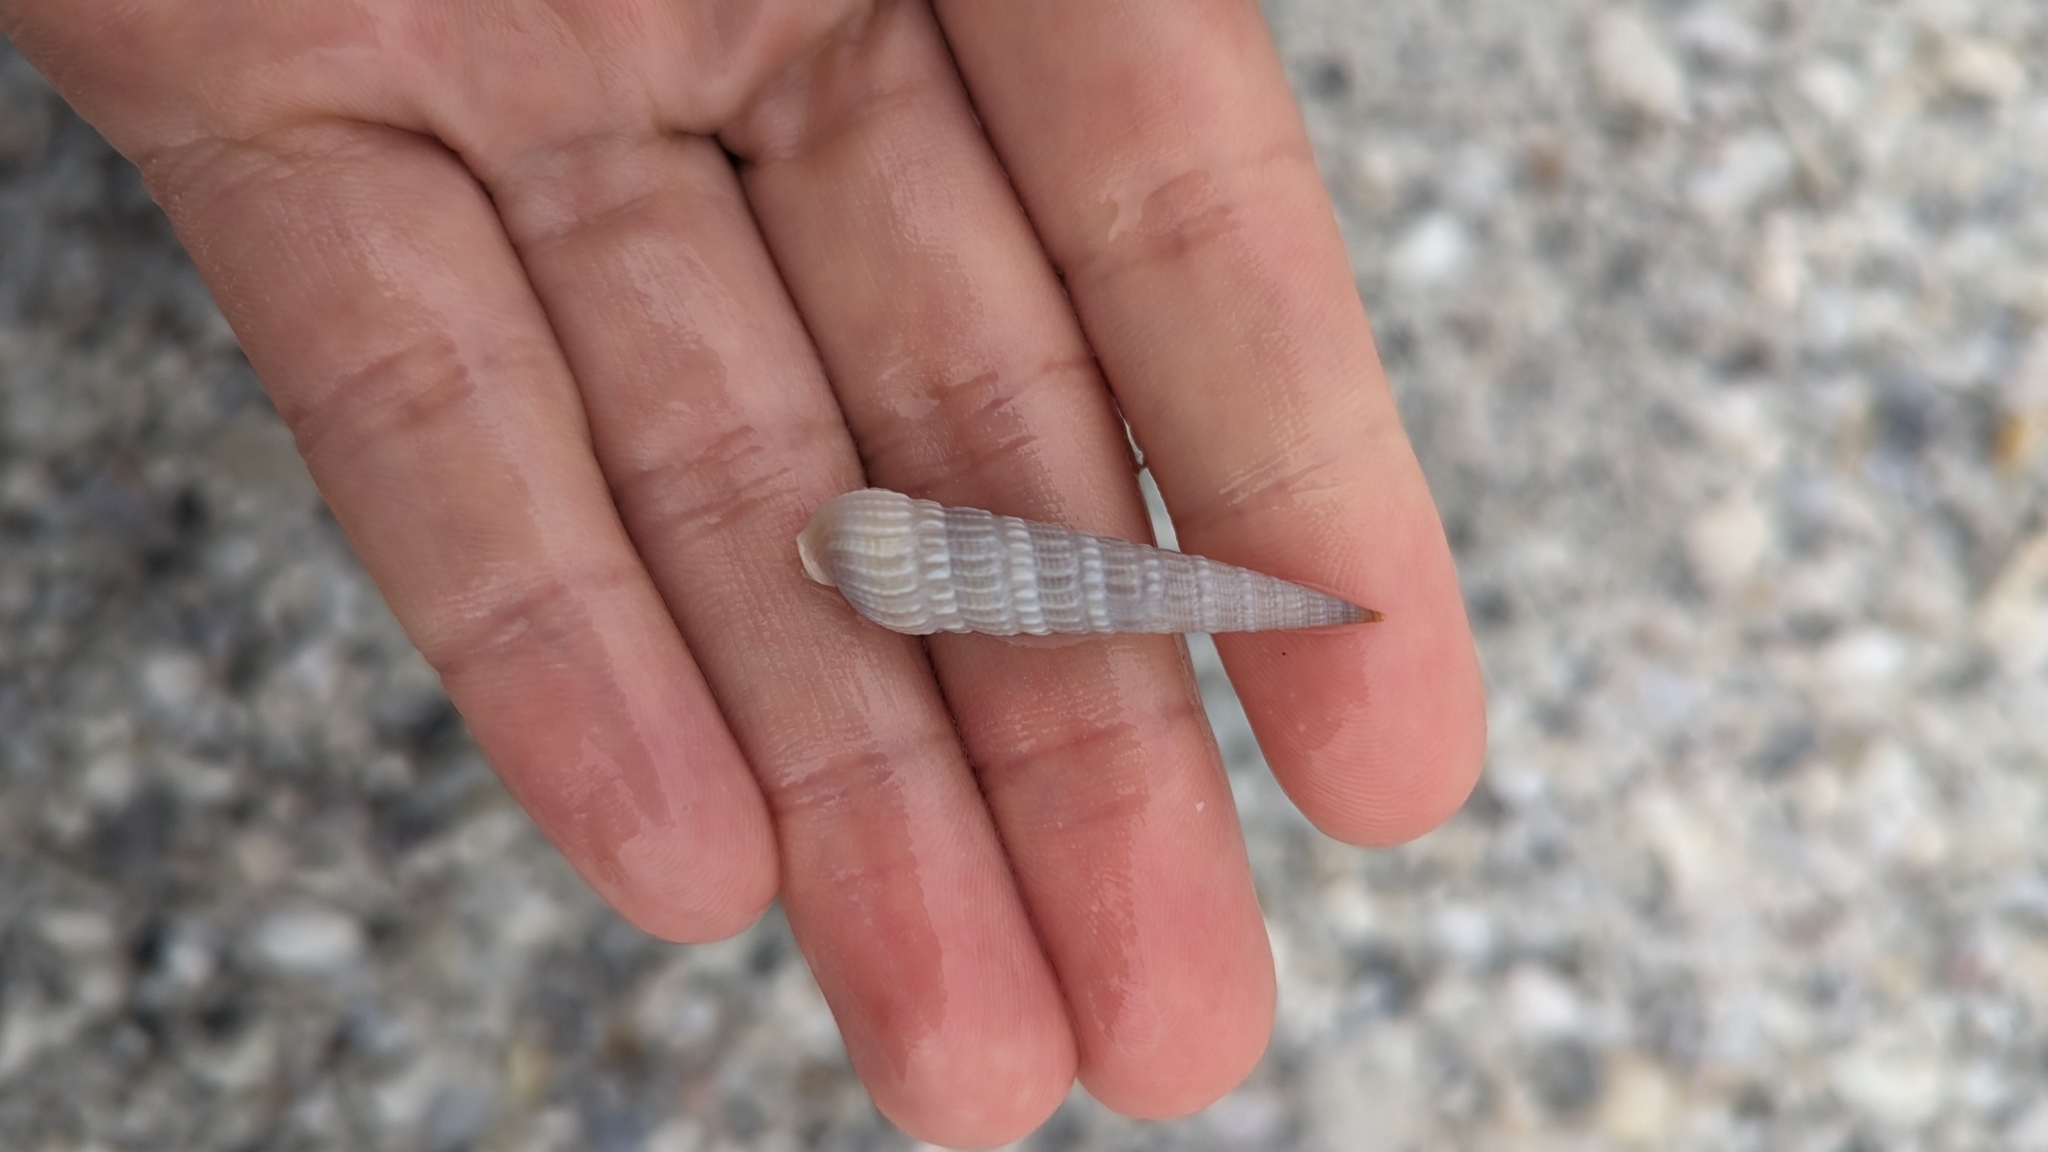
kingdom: Animalia
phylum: Mollusca
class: Gastropoda
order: Neogastropoda
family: Terebridae
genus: Neoterebra
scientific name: Neoterebra dislocata
